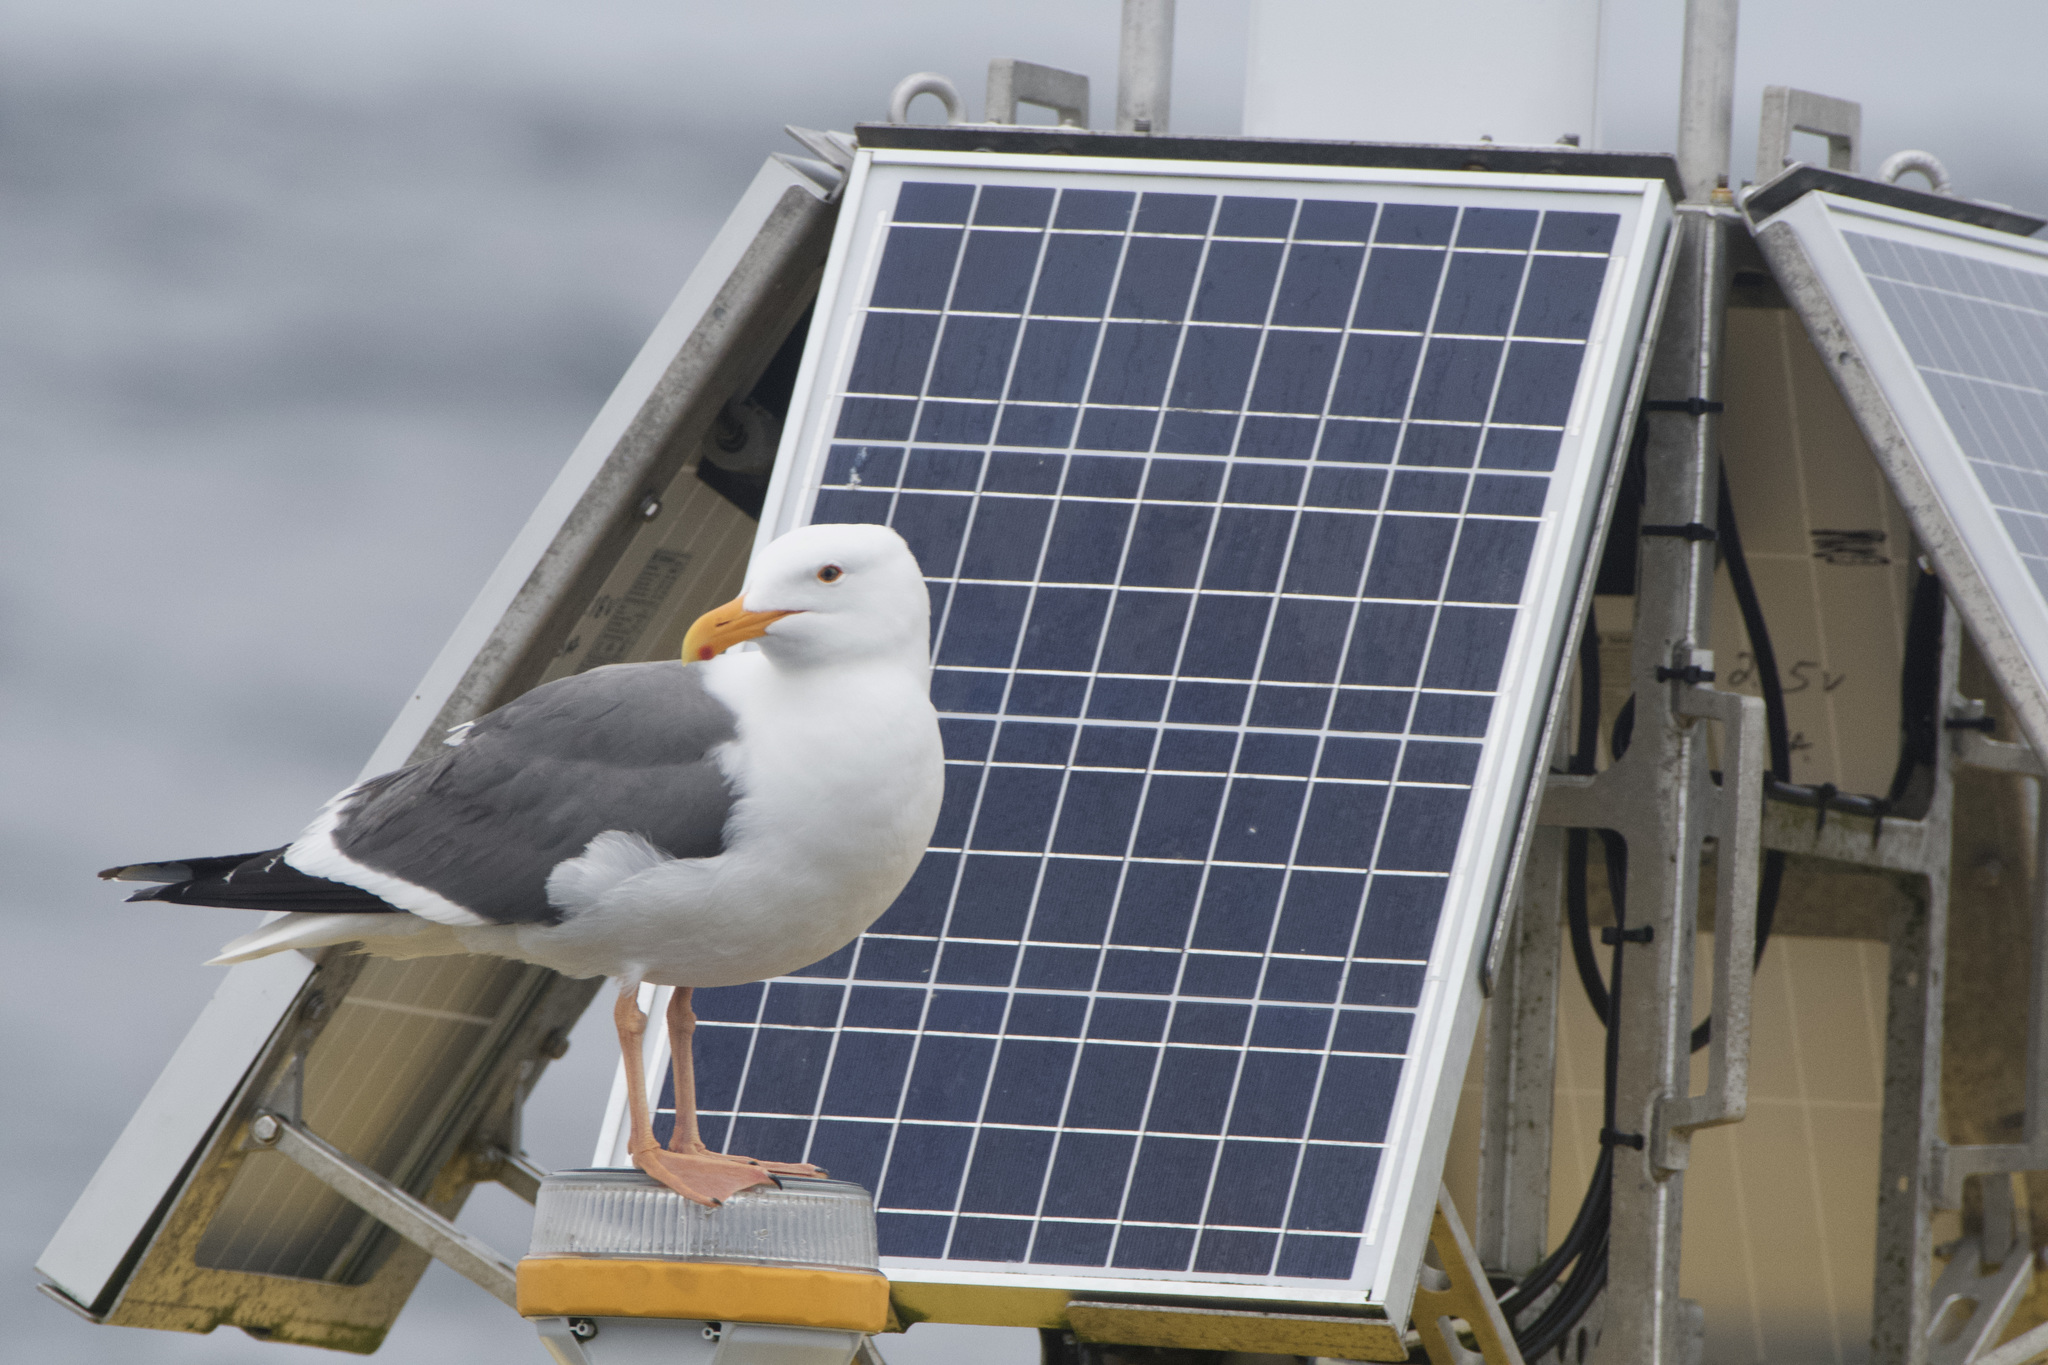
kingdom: Animalia
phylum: Chordata
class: Aves
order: Charadriiformes
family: Laridae
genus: Larus
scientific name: Larus occidentalis
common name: Western gull
